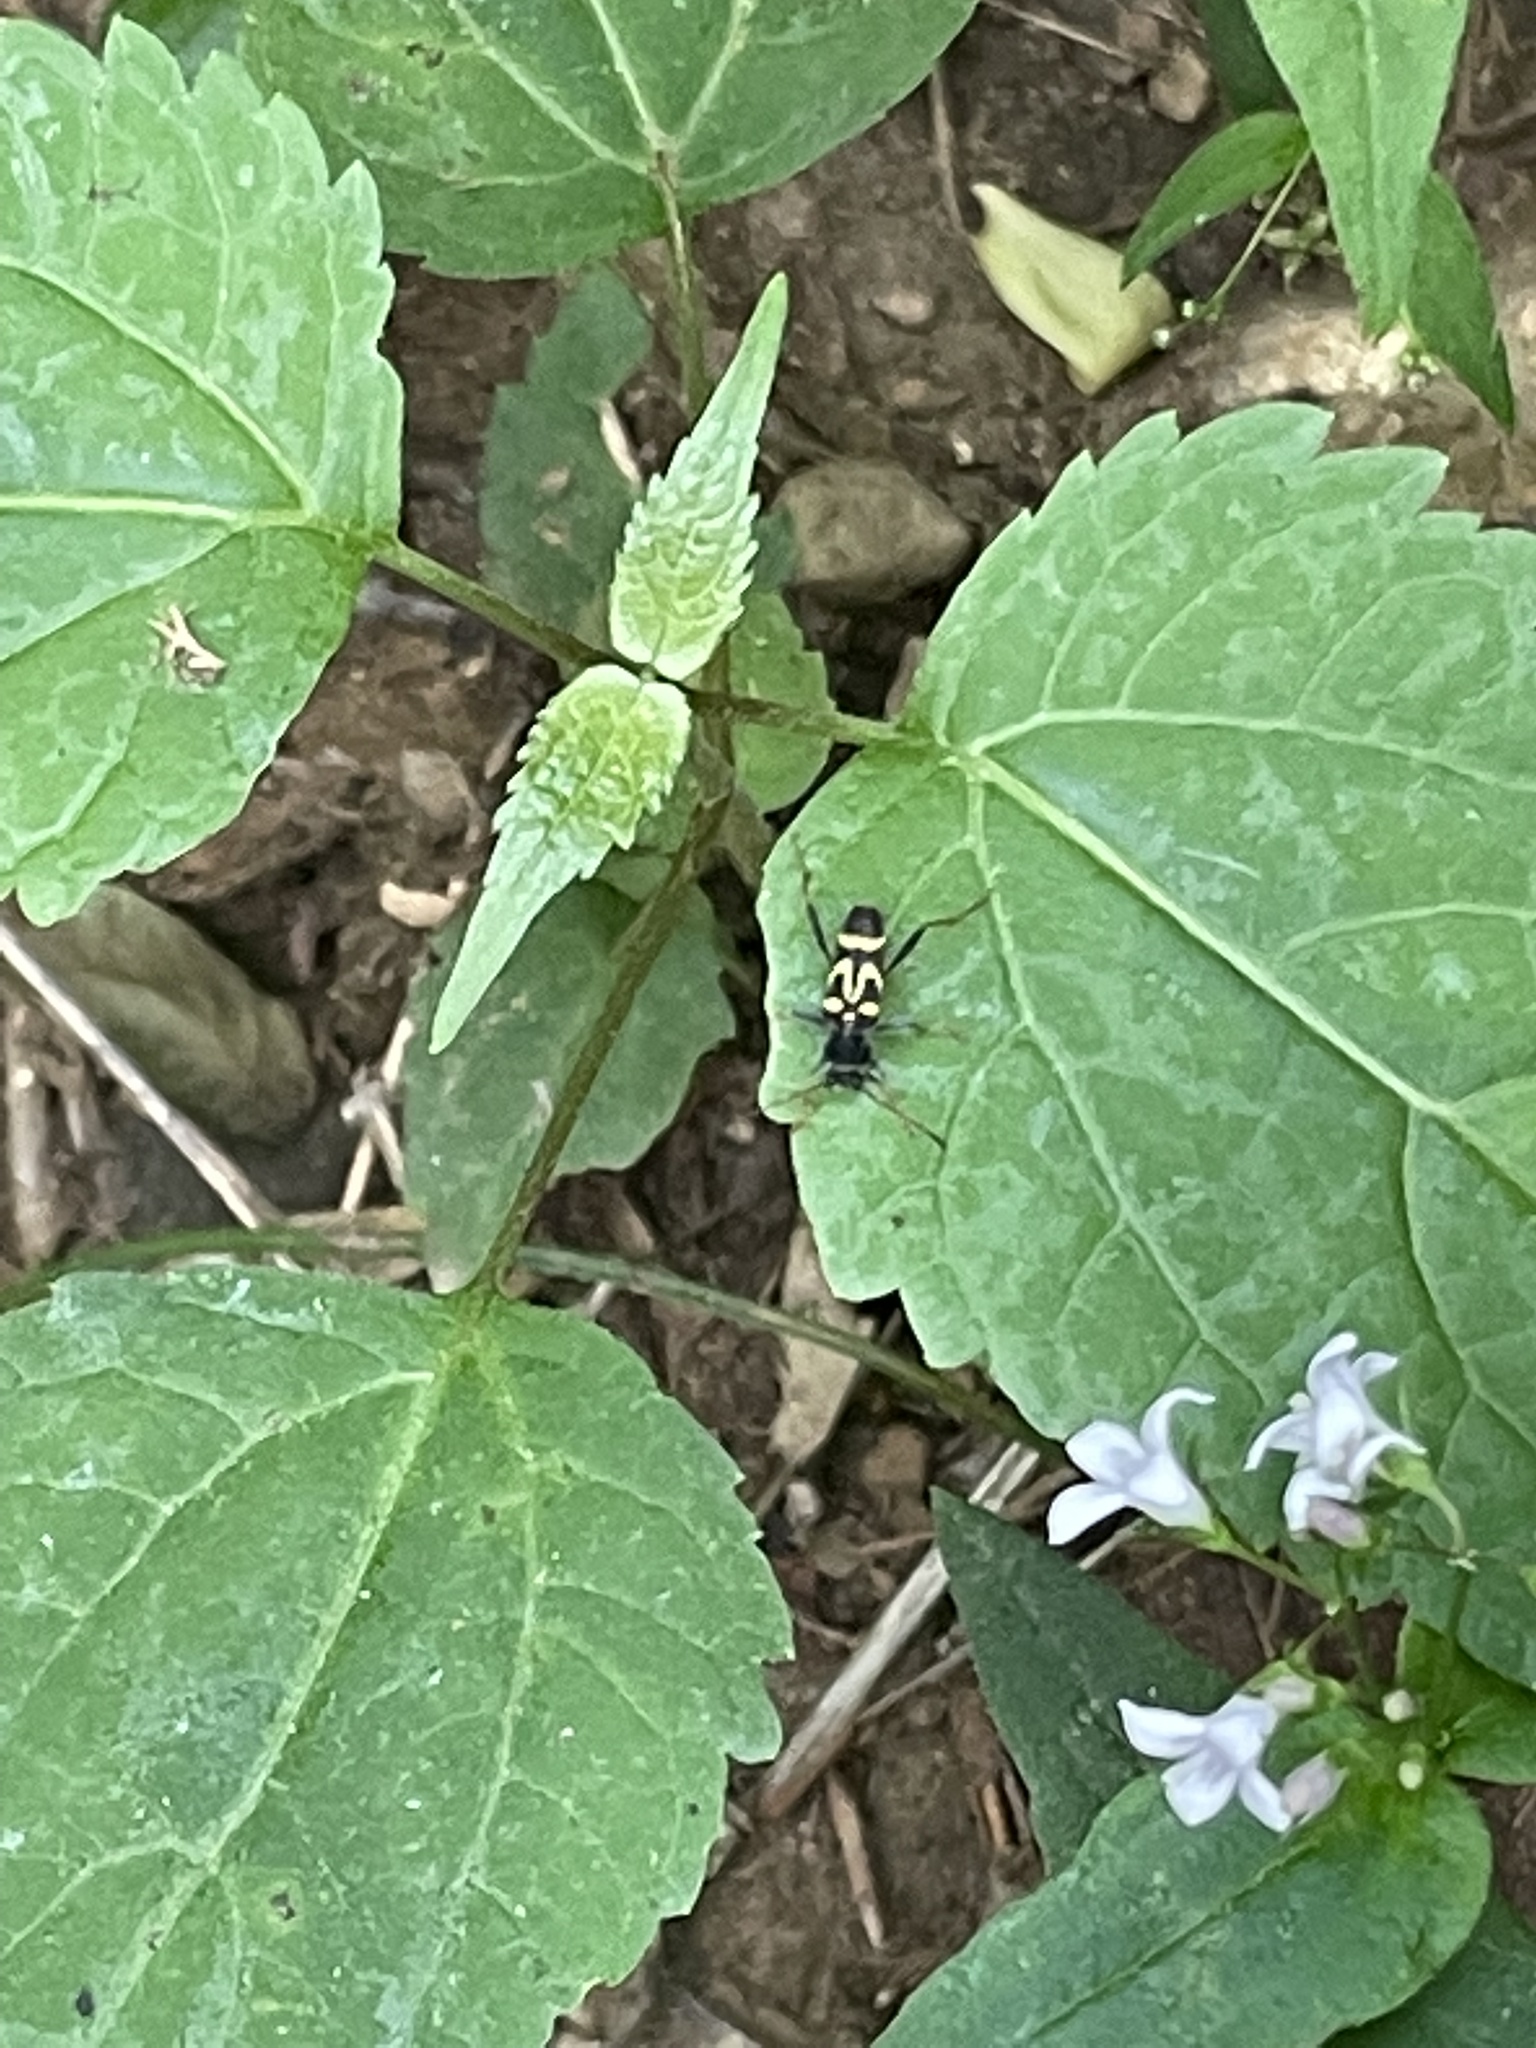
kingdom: Animalia
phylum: Arthropoda
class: Insecta
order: Coleoptera
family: Cerambycidae
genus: Clytus
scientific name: Clytus ruricola
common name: Round-necked longhorn beetle
